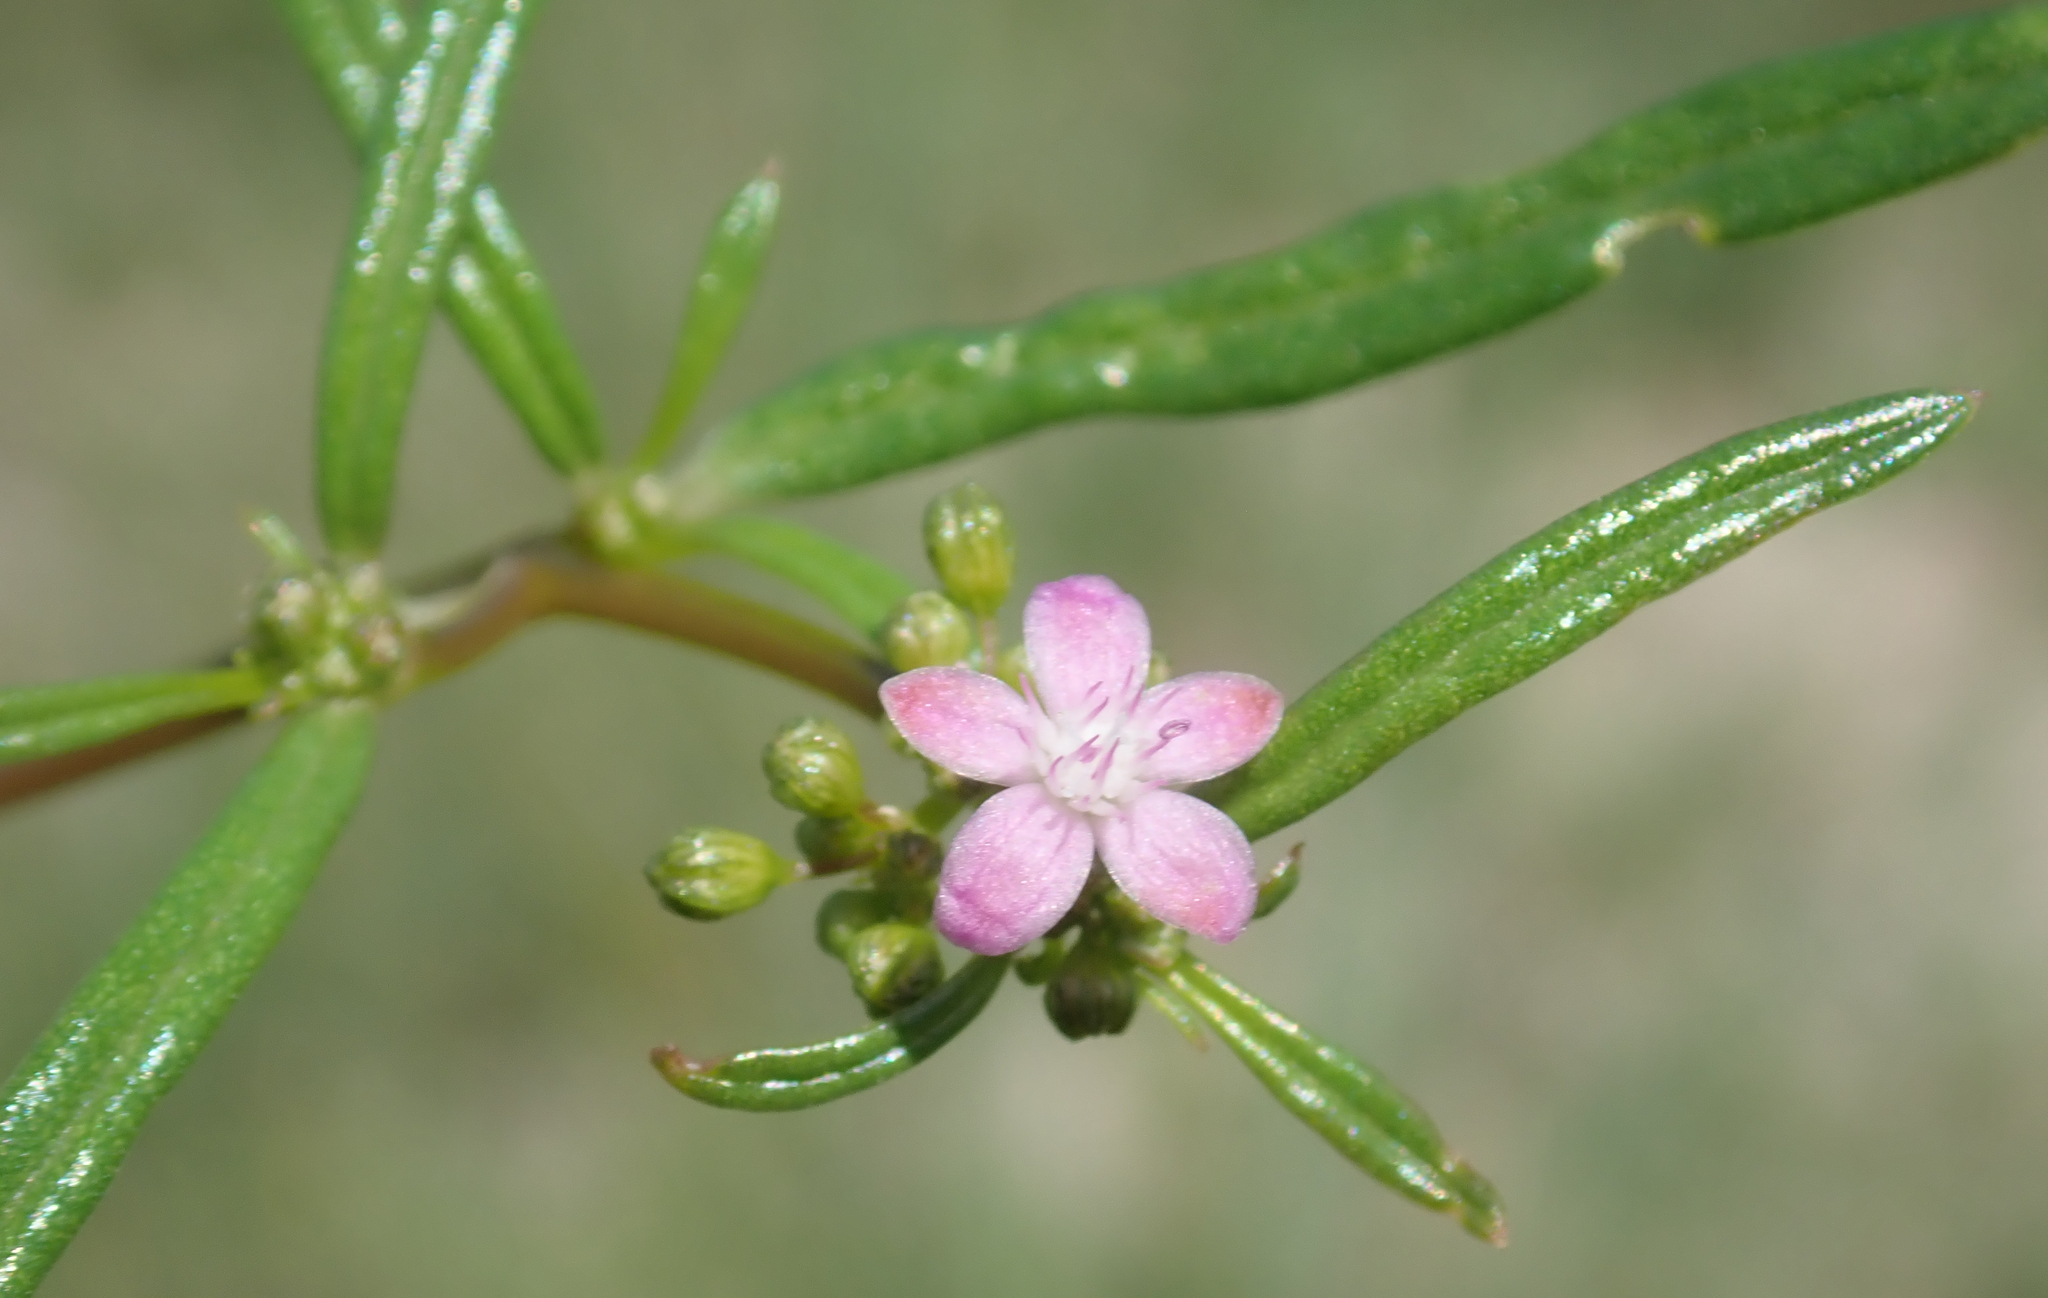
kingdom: Plantae
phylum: Tracheophyta
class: Magnoliopsida
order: Caryophyllales
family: Gisekiaceae
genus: Gisekia
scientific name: Gisekia africana
